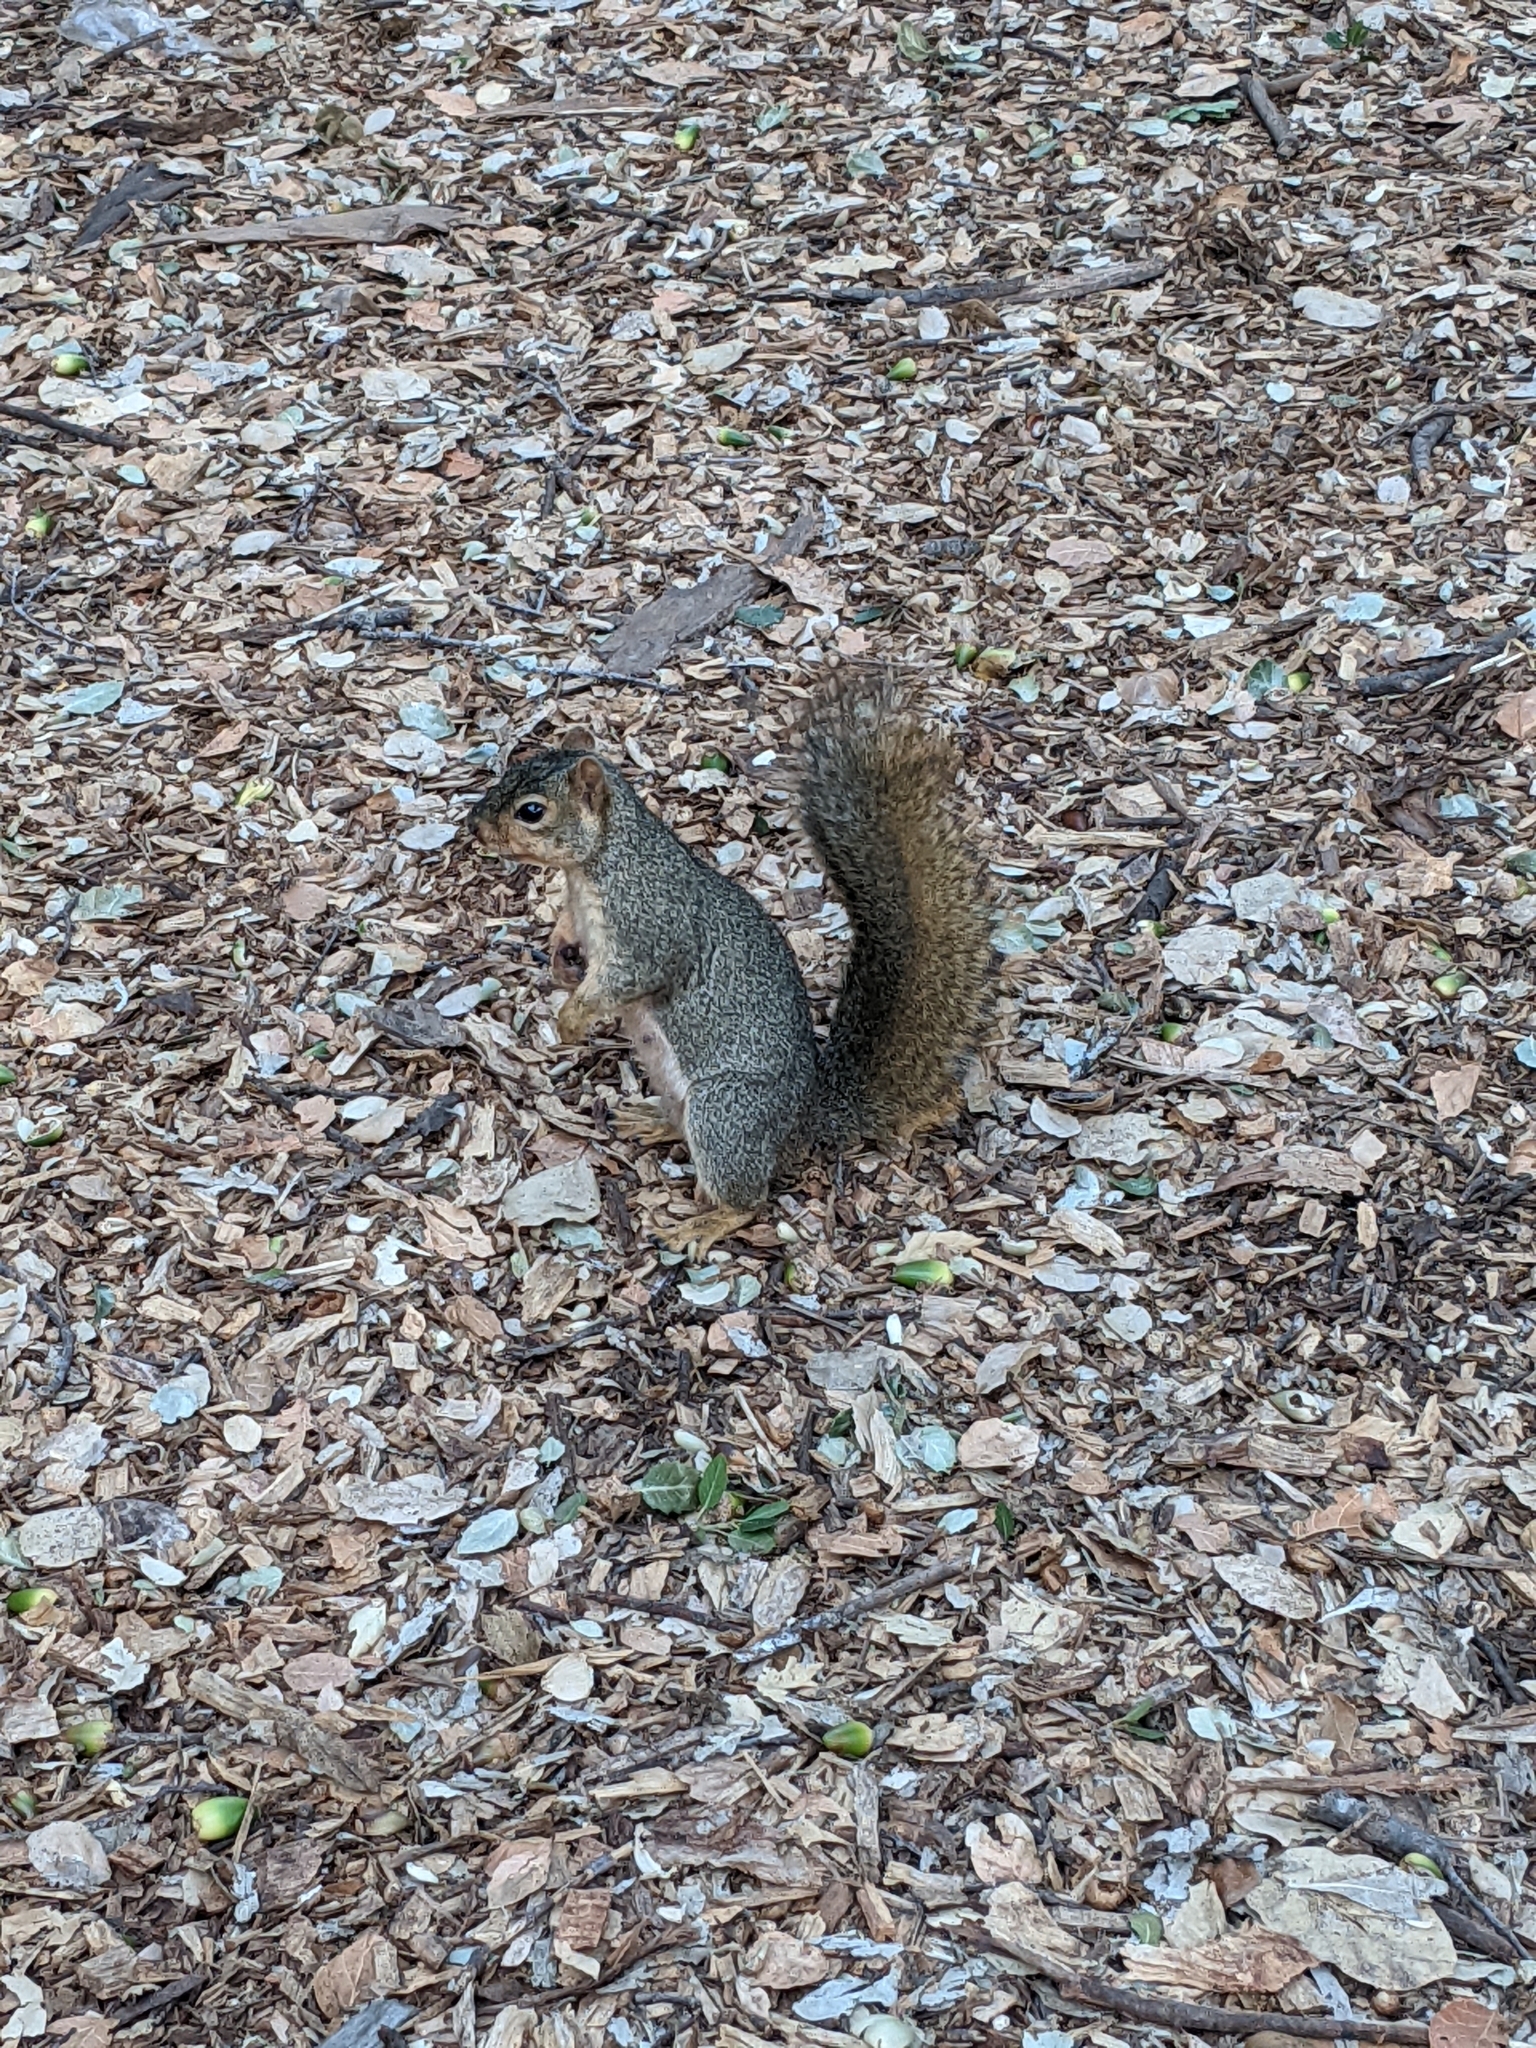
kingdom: Animalia
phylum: Chordata
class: Mammalia
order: Rodentia
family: Sciuridae
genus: Sciurus
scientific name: Sciurus niger
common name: Fox squirrel
